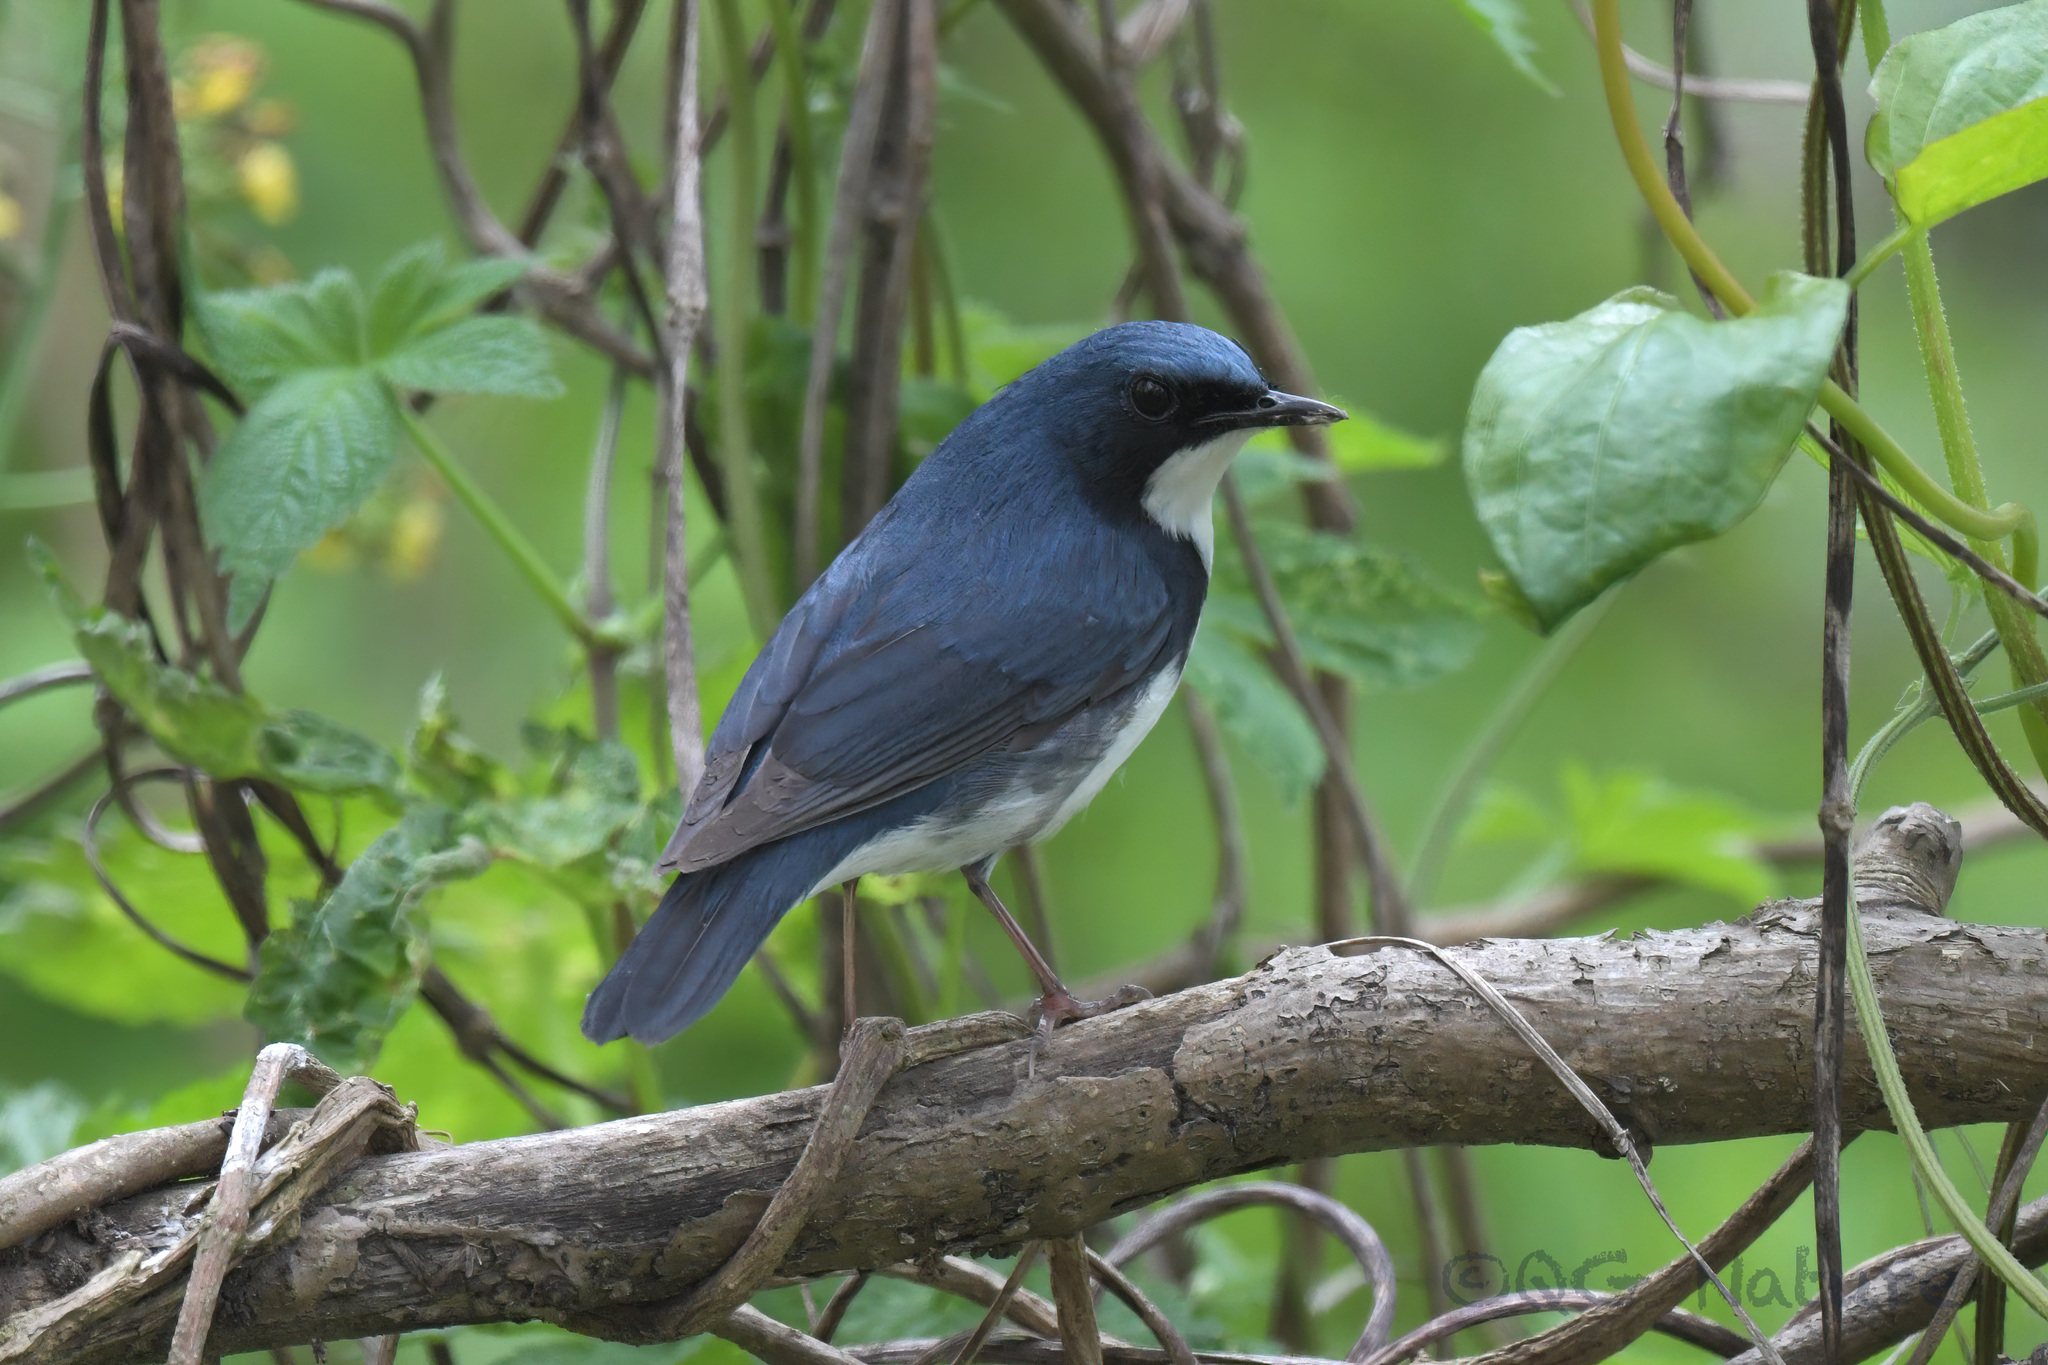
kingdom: Animalia
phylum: Chordata
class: Aves
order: Passeriformes
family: Muscicapidae
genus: Luscinia
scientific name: Luscinia cyane
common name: Siberian blue robin
